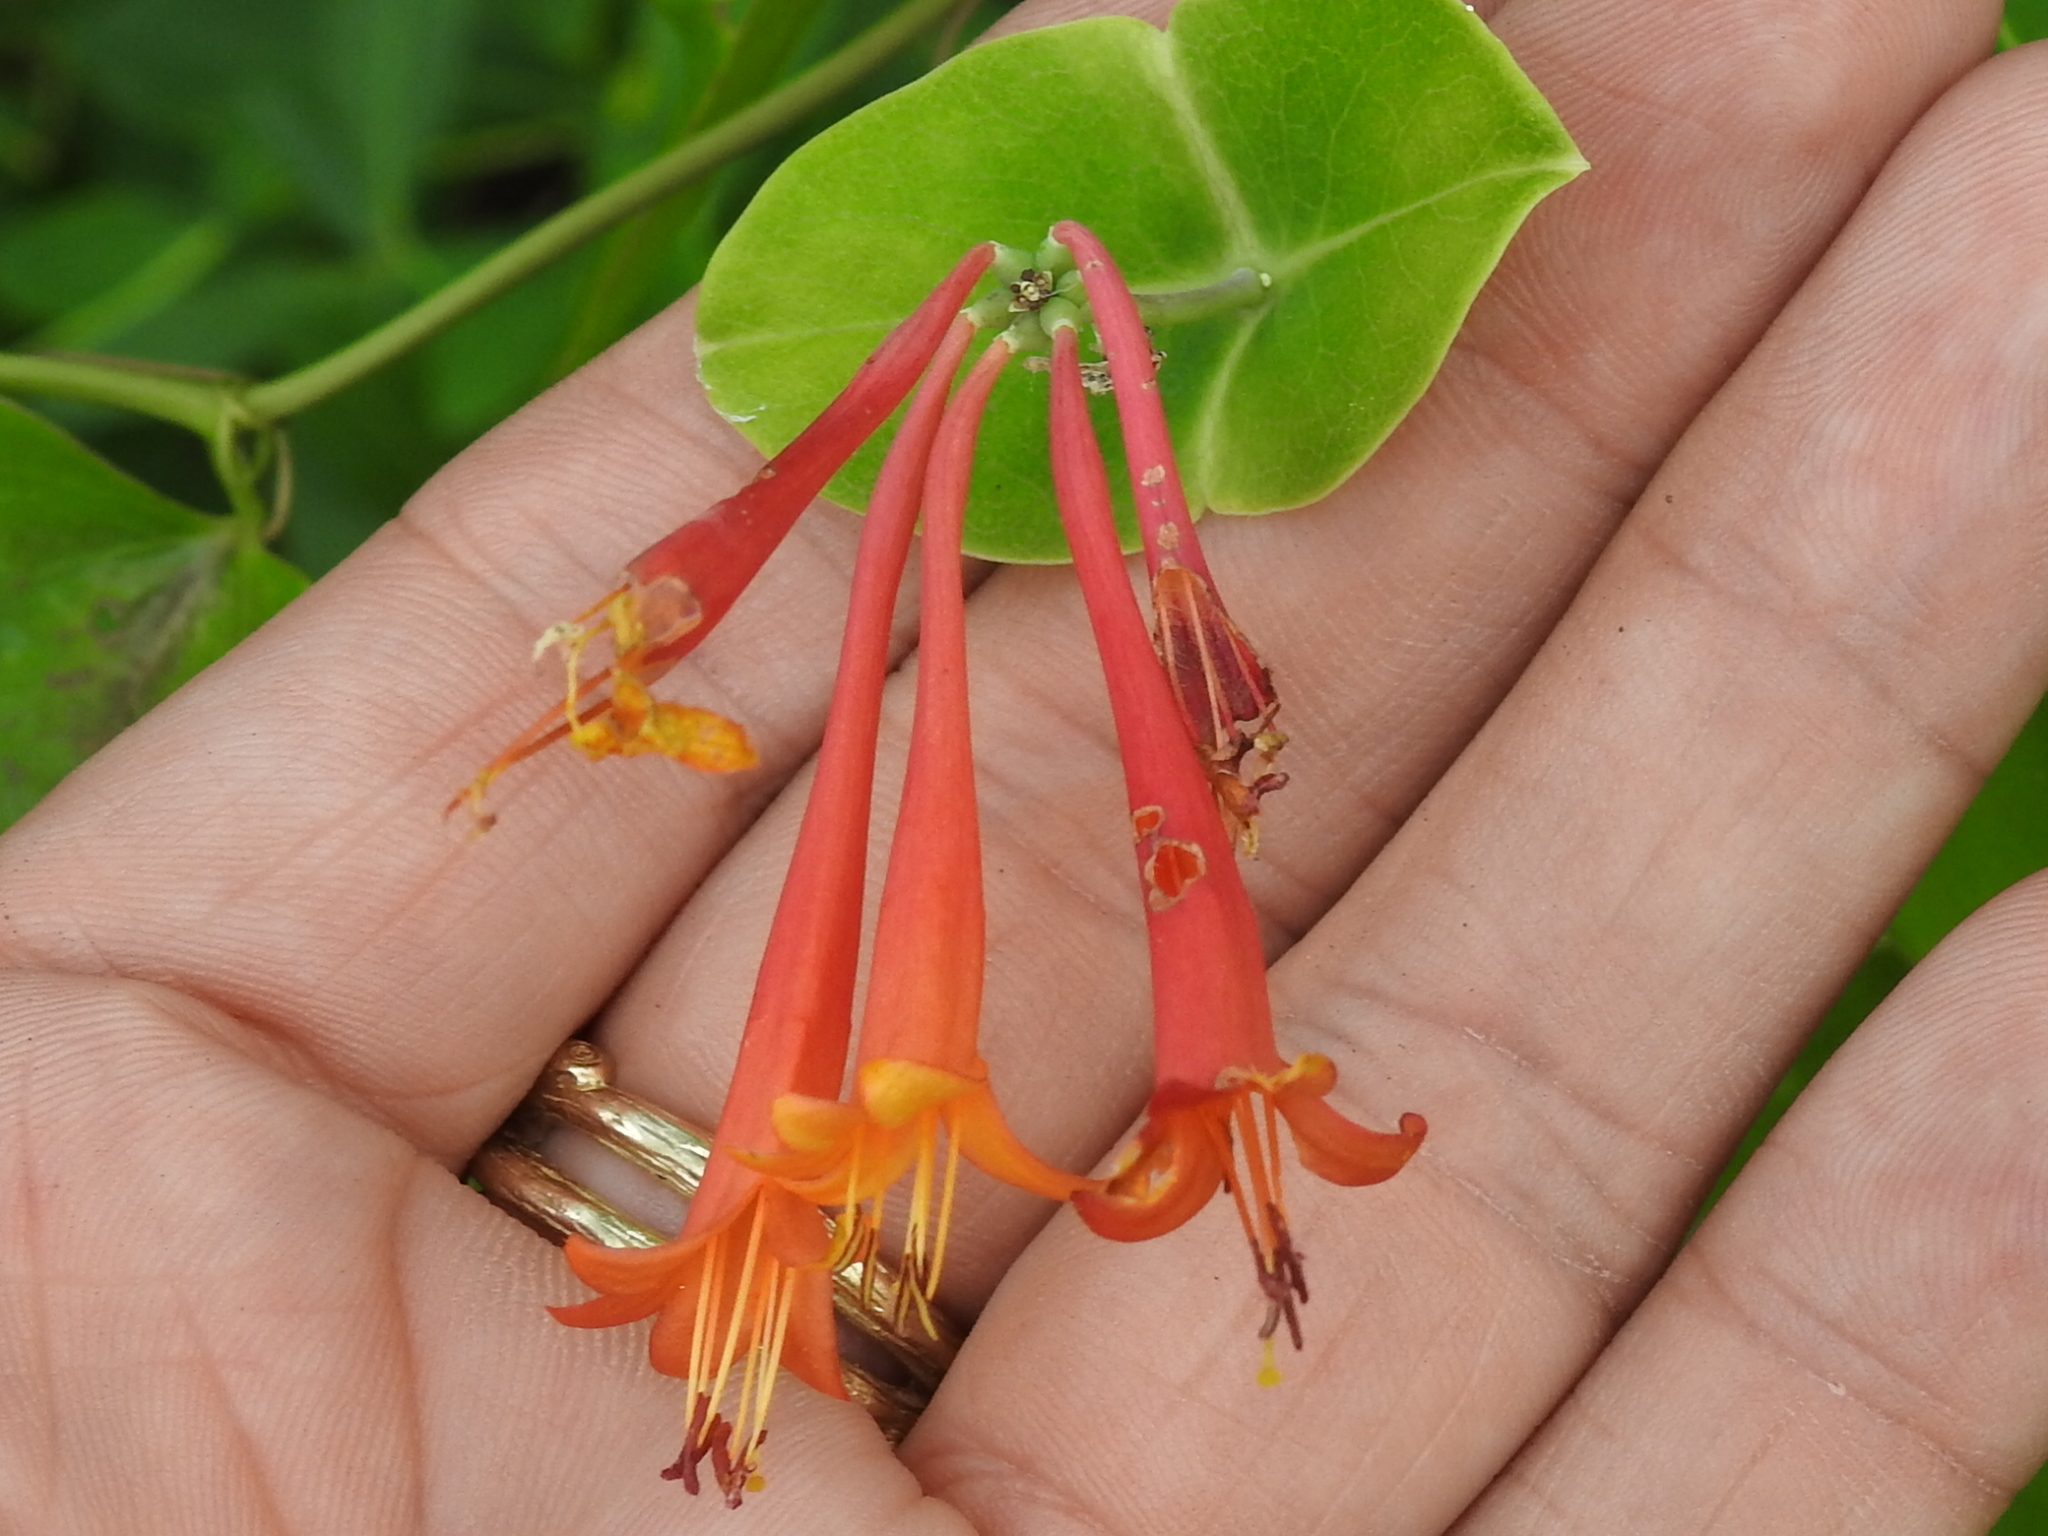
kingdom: Plantae
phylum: Tracheophyta
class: Magnoliopsida
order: Dipsacales
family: Caprifoliaceae
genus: Lonicera
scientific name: Lonicera sempervirens
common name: Coral honeysuckle
